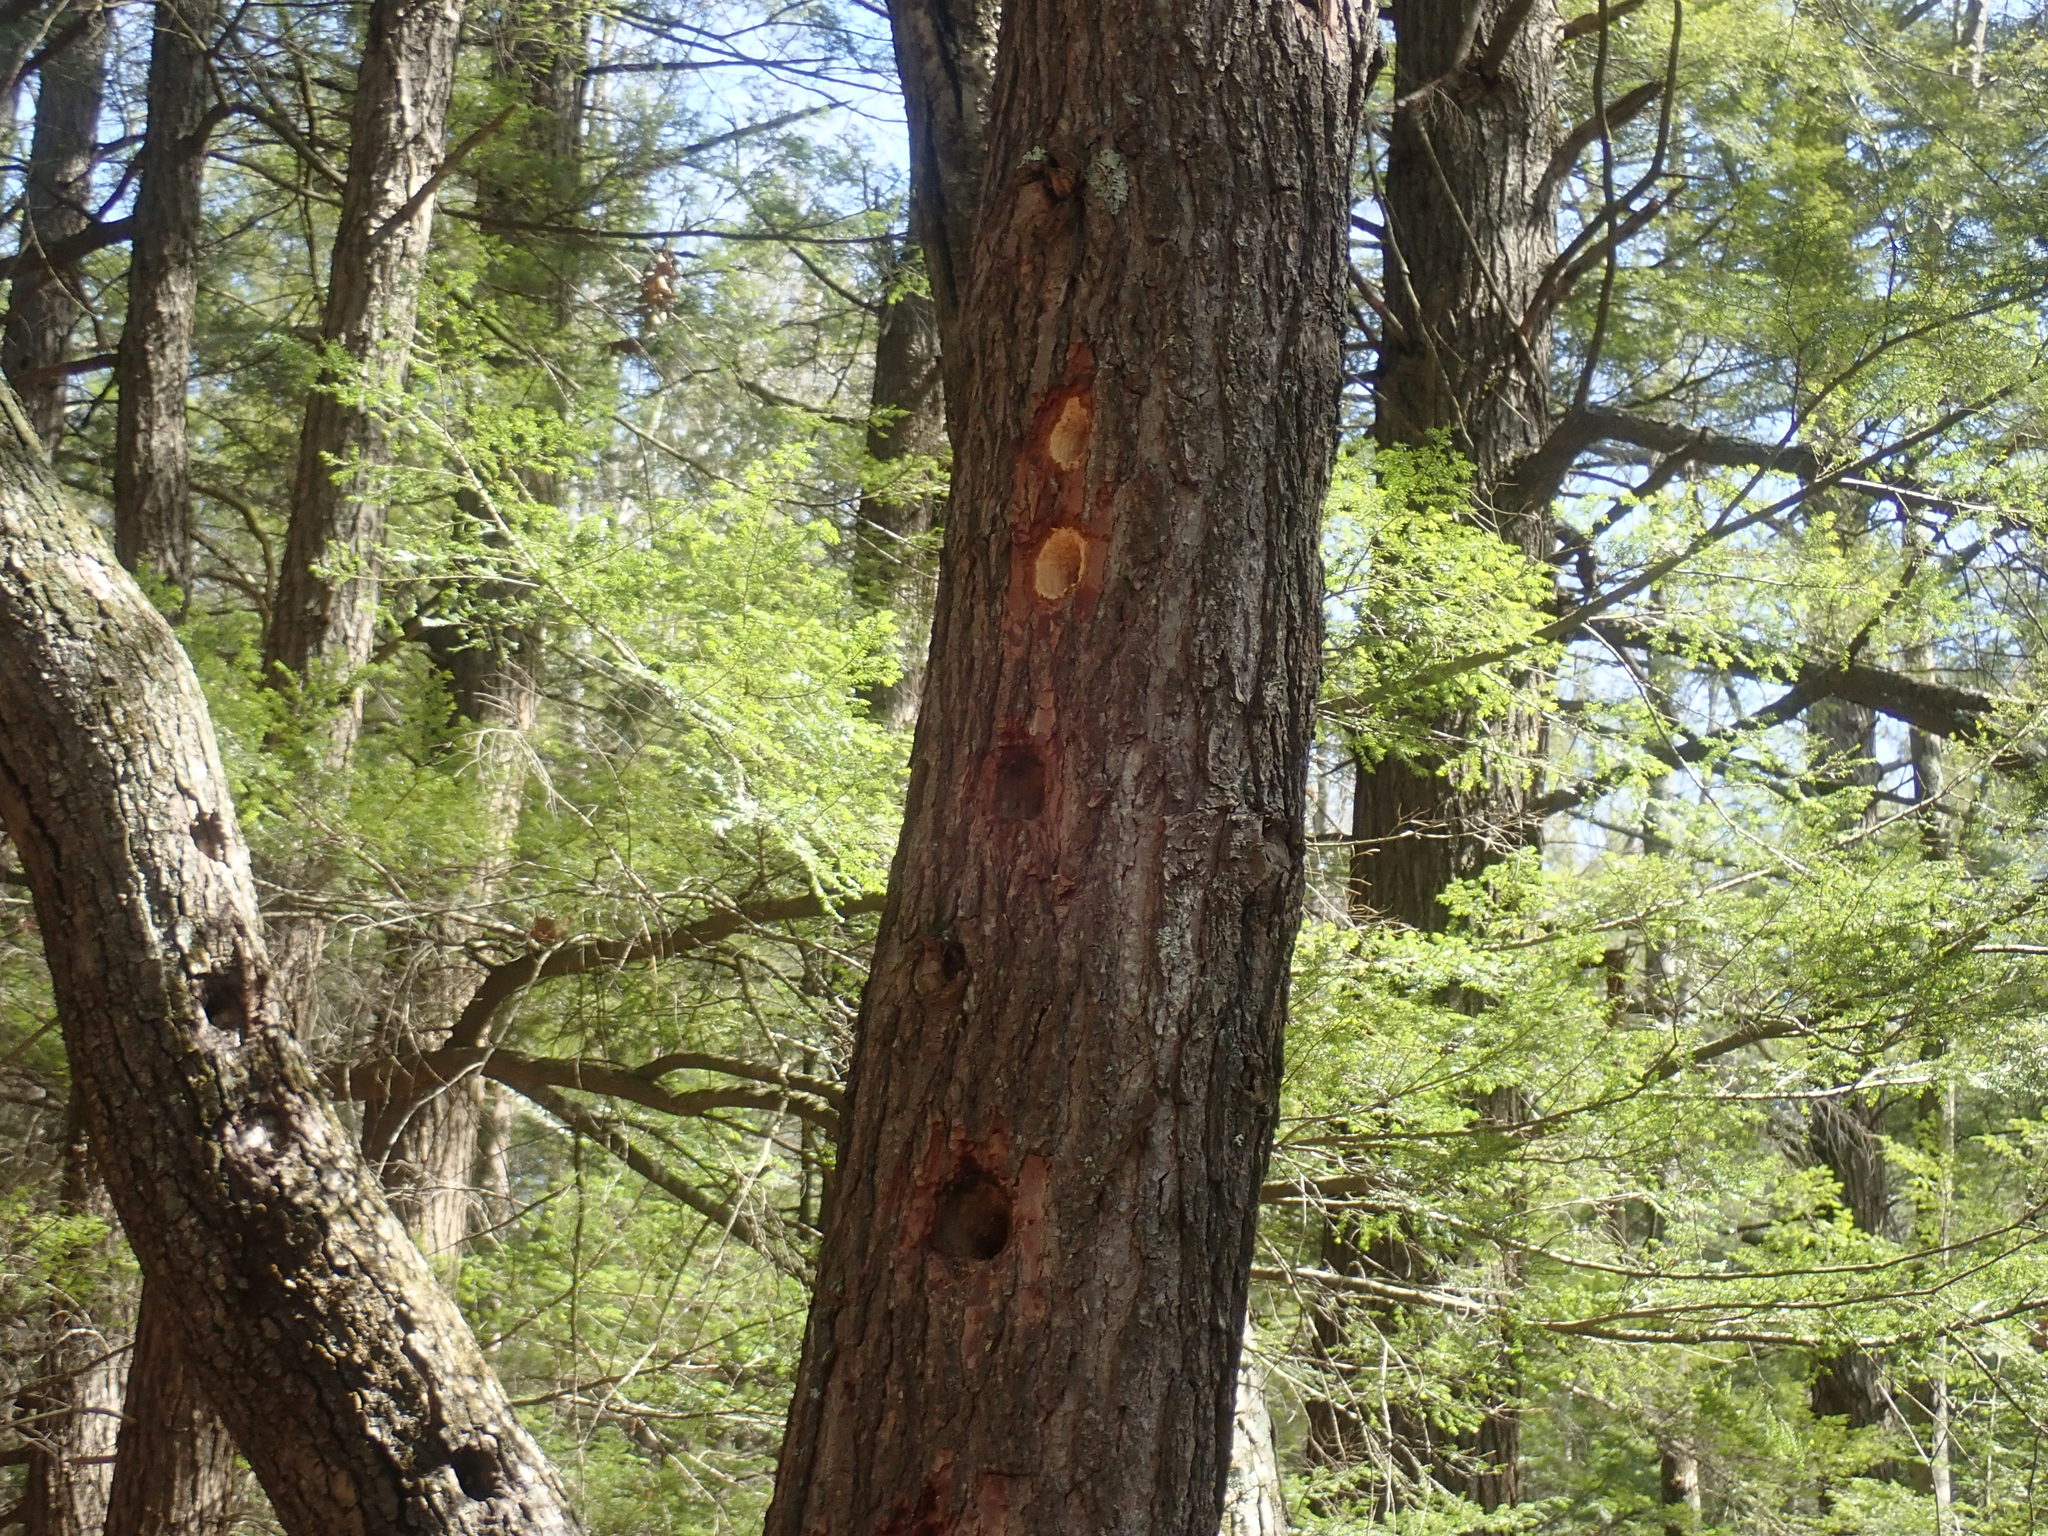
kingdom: Animalia
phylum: Chordata
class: Aves
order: Piciformes
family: Picidae
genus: Dryocopus
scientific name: Dryocopus pileatus
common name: Pileated woodpecker
